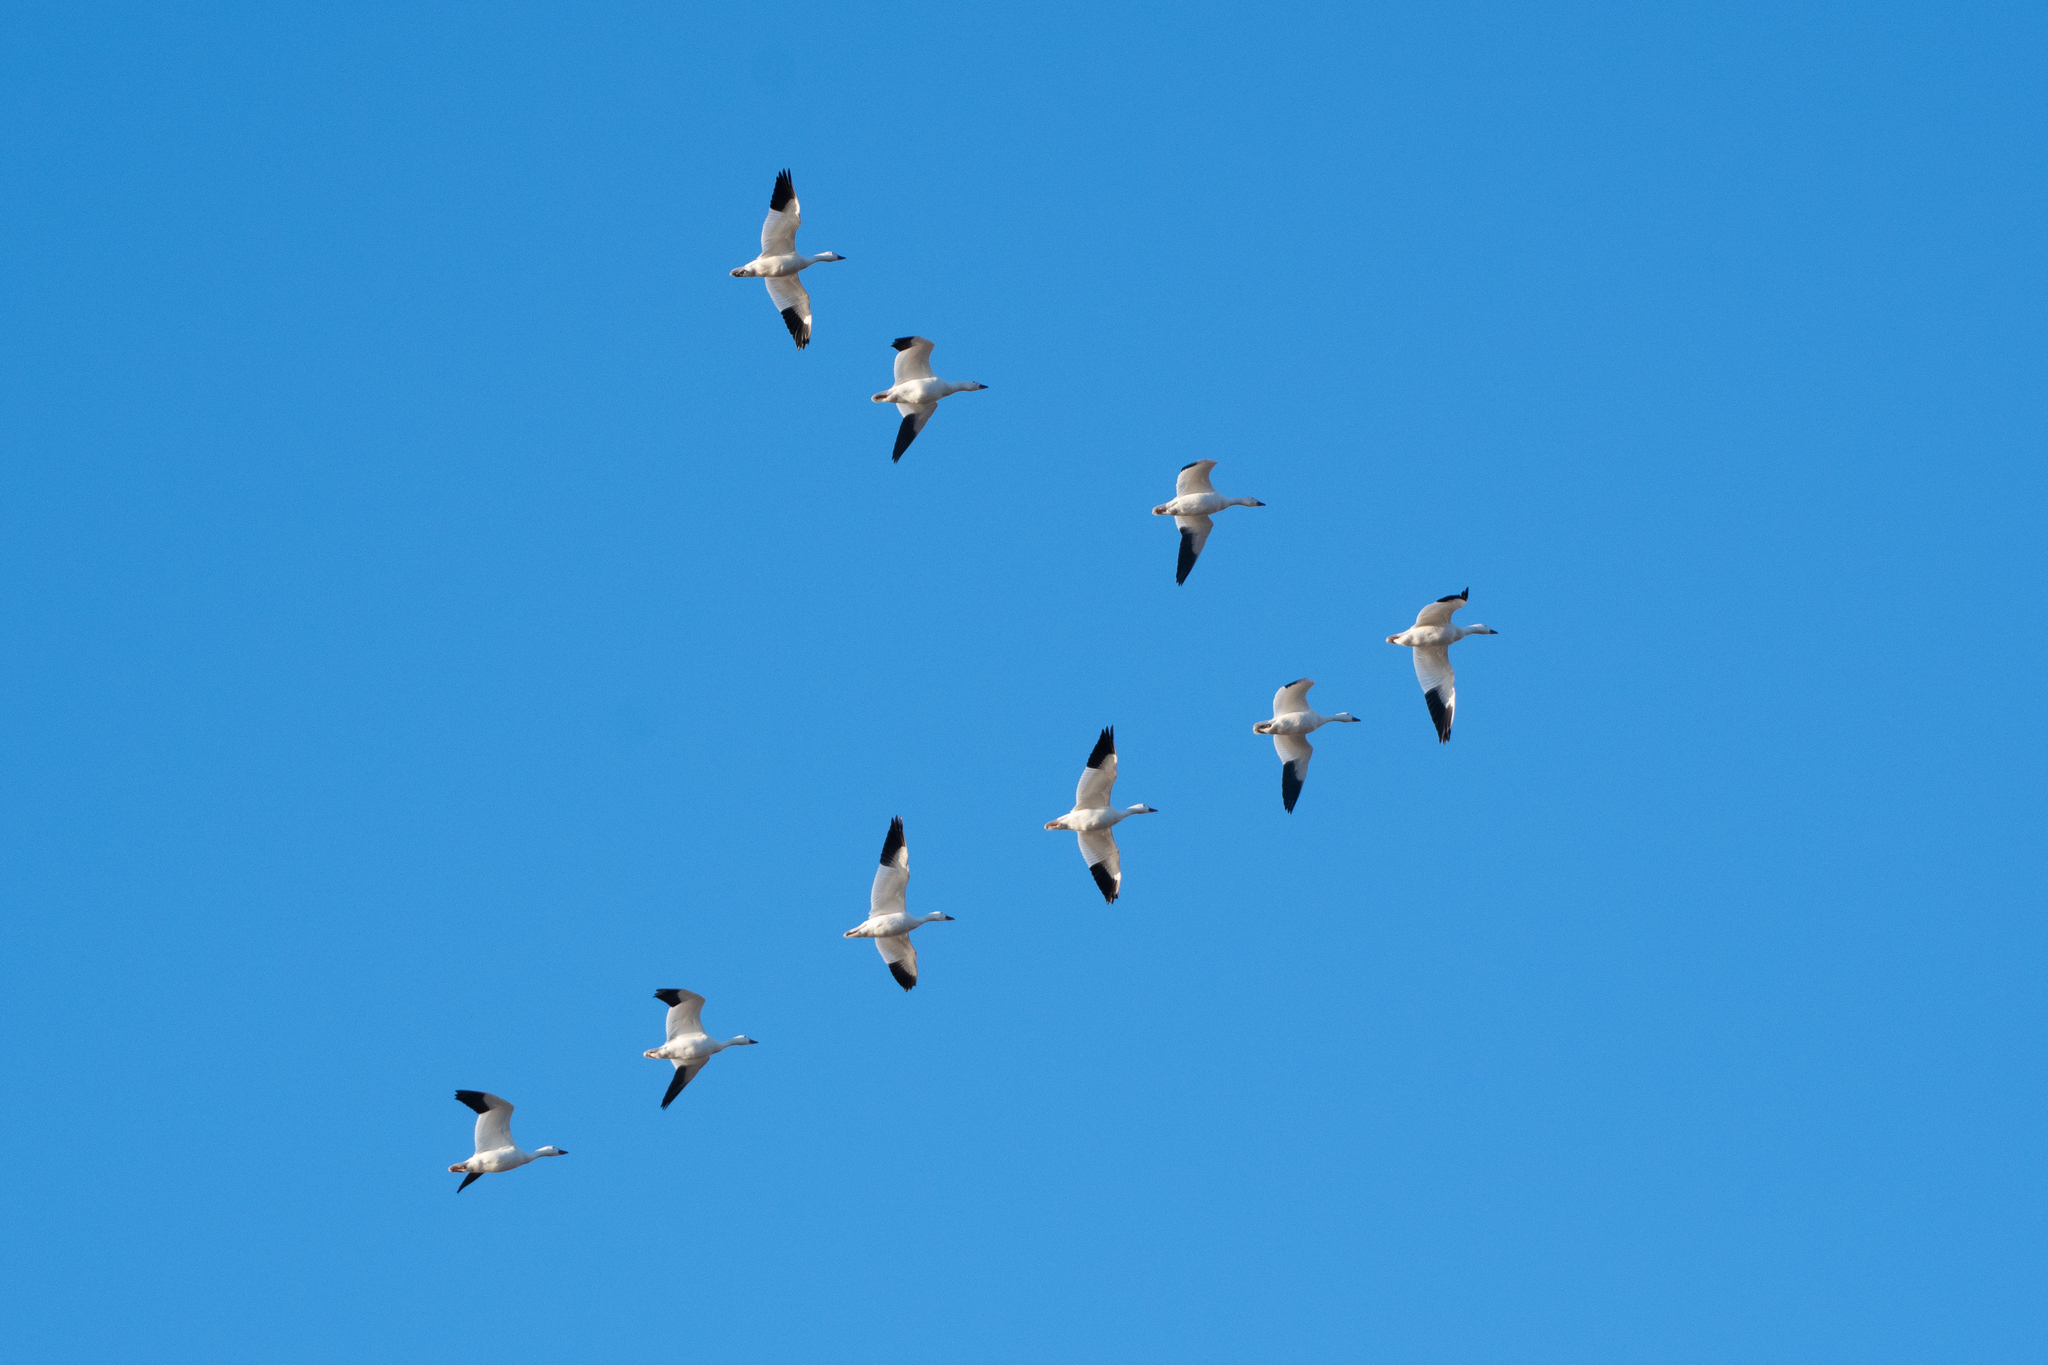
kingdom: Animalia
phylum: Chordata
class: Aves
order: Anseriformes
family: Anatidae
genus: Anser
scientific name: Anser caerulescens
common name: Snow goose
